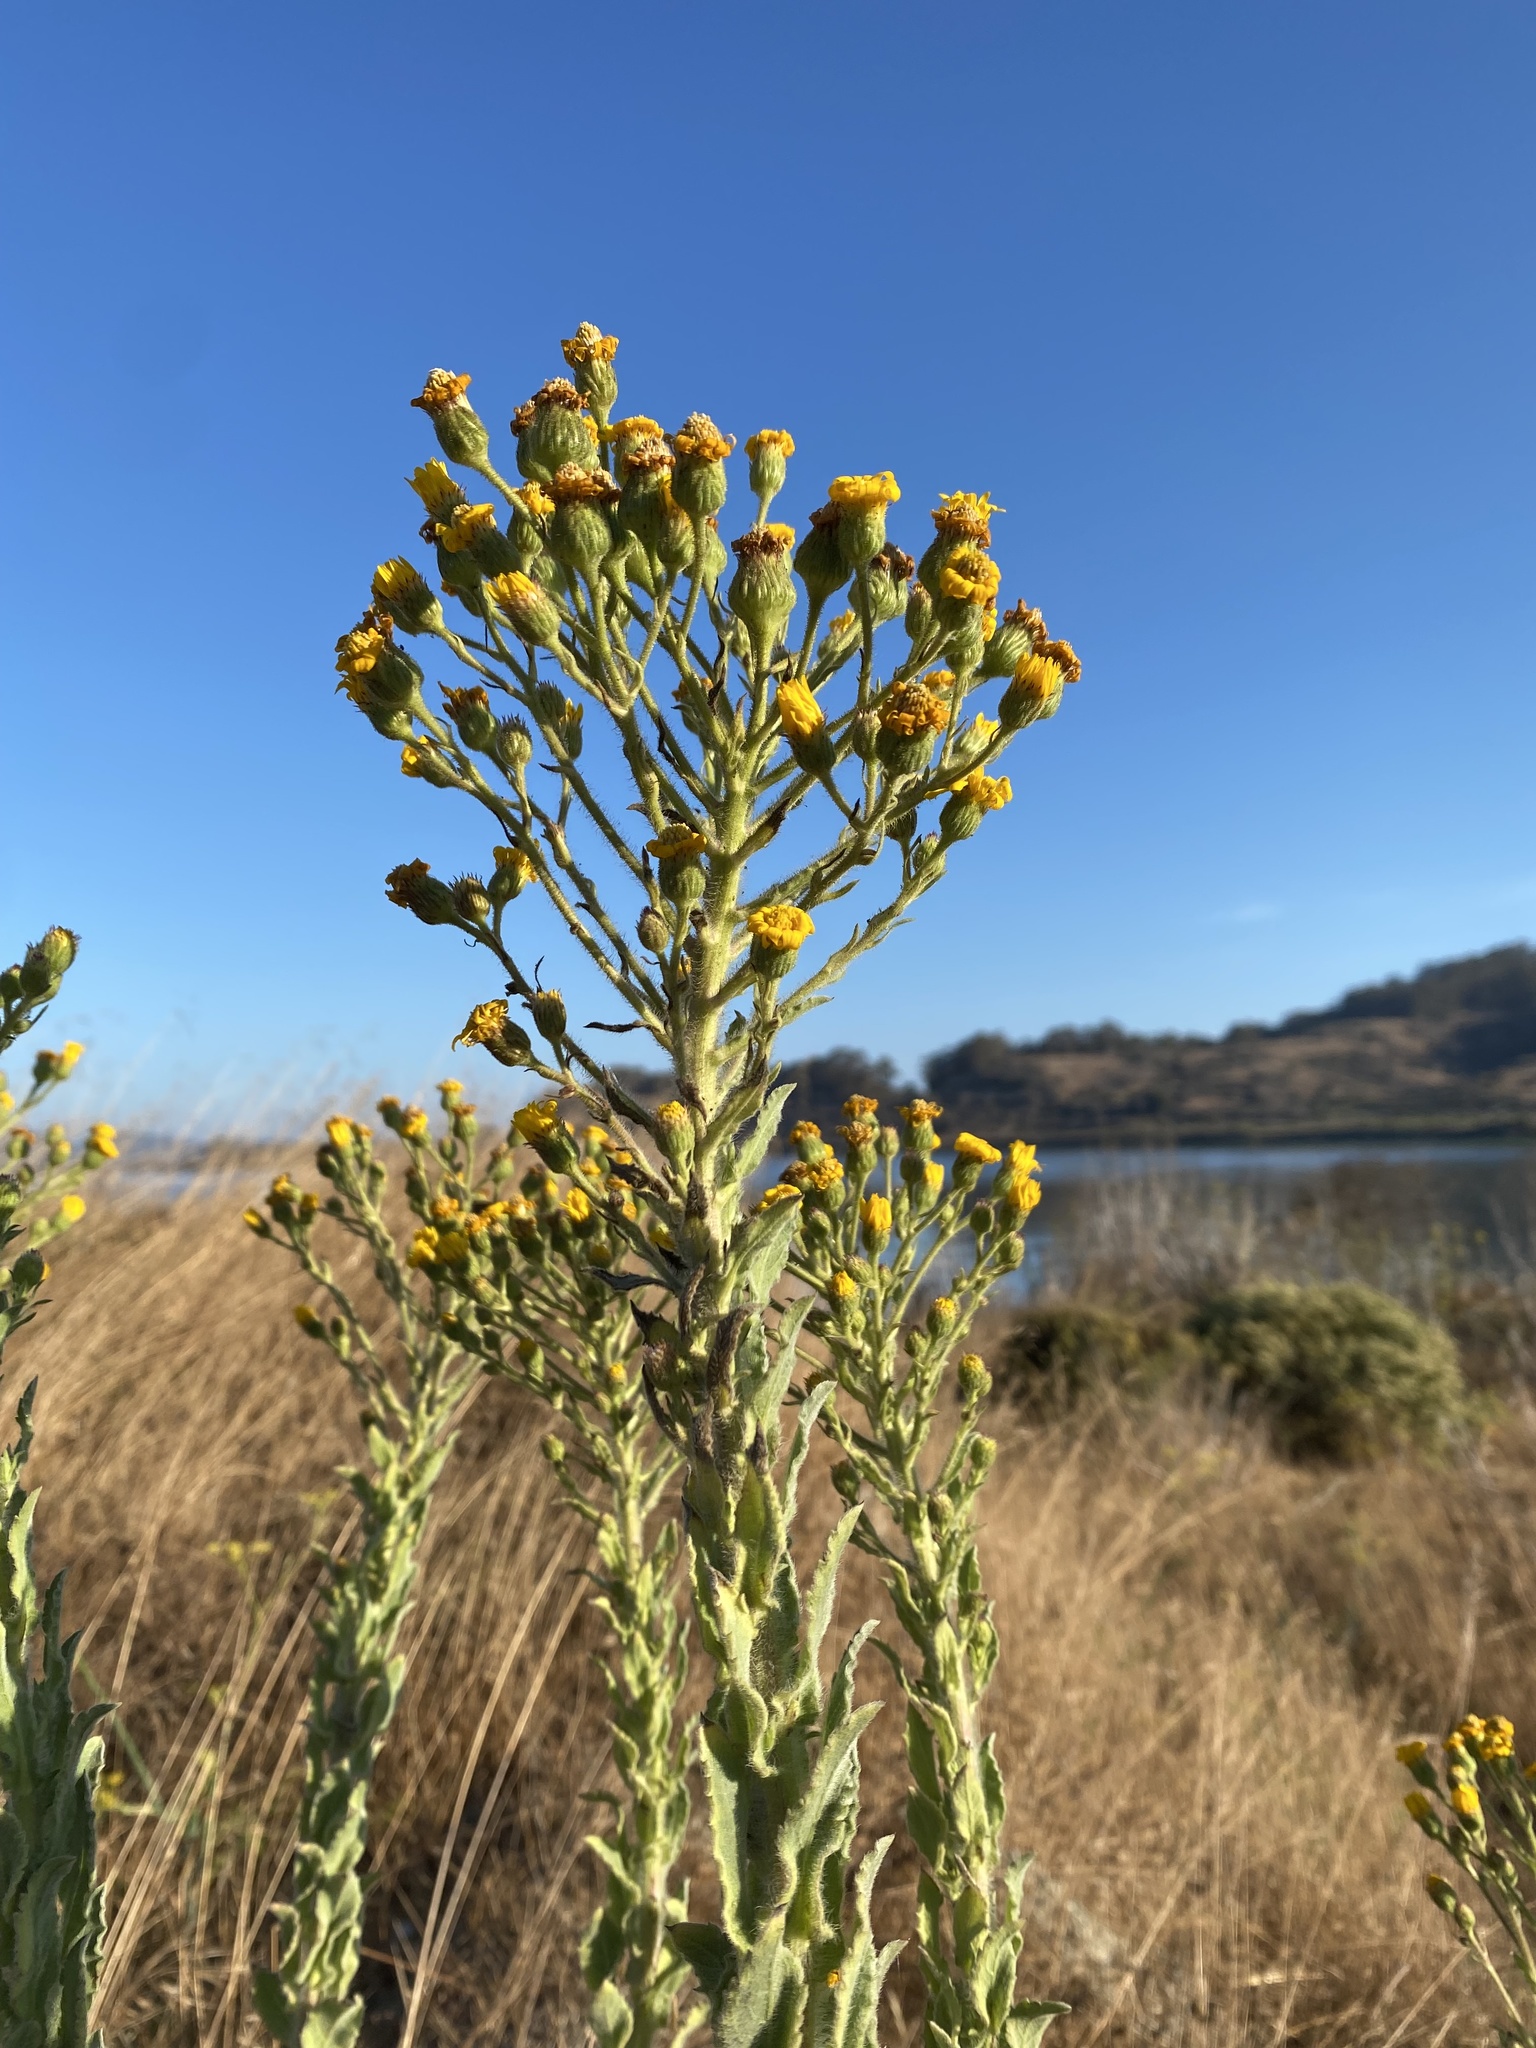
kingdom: Plantae
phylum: Tracheophyta
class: Magnoliopsida
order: Asterales
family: Asteraceae
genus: Heterotheca
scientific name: Heterotheca grandiflora
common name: Telegraphweed
